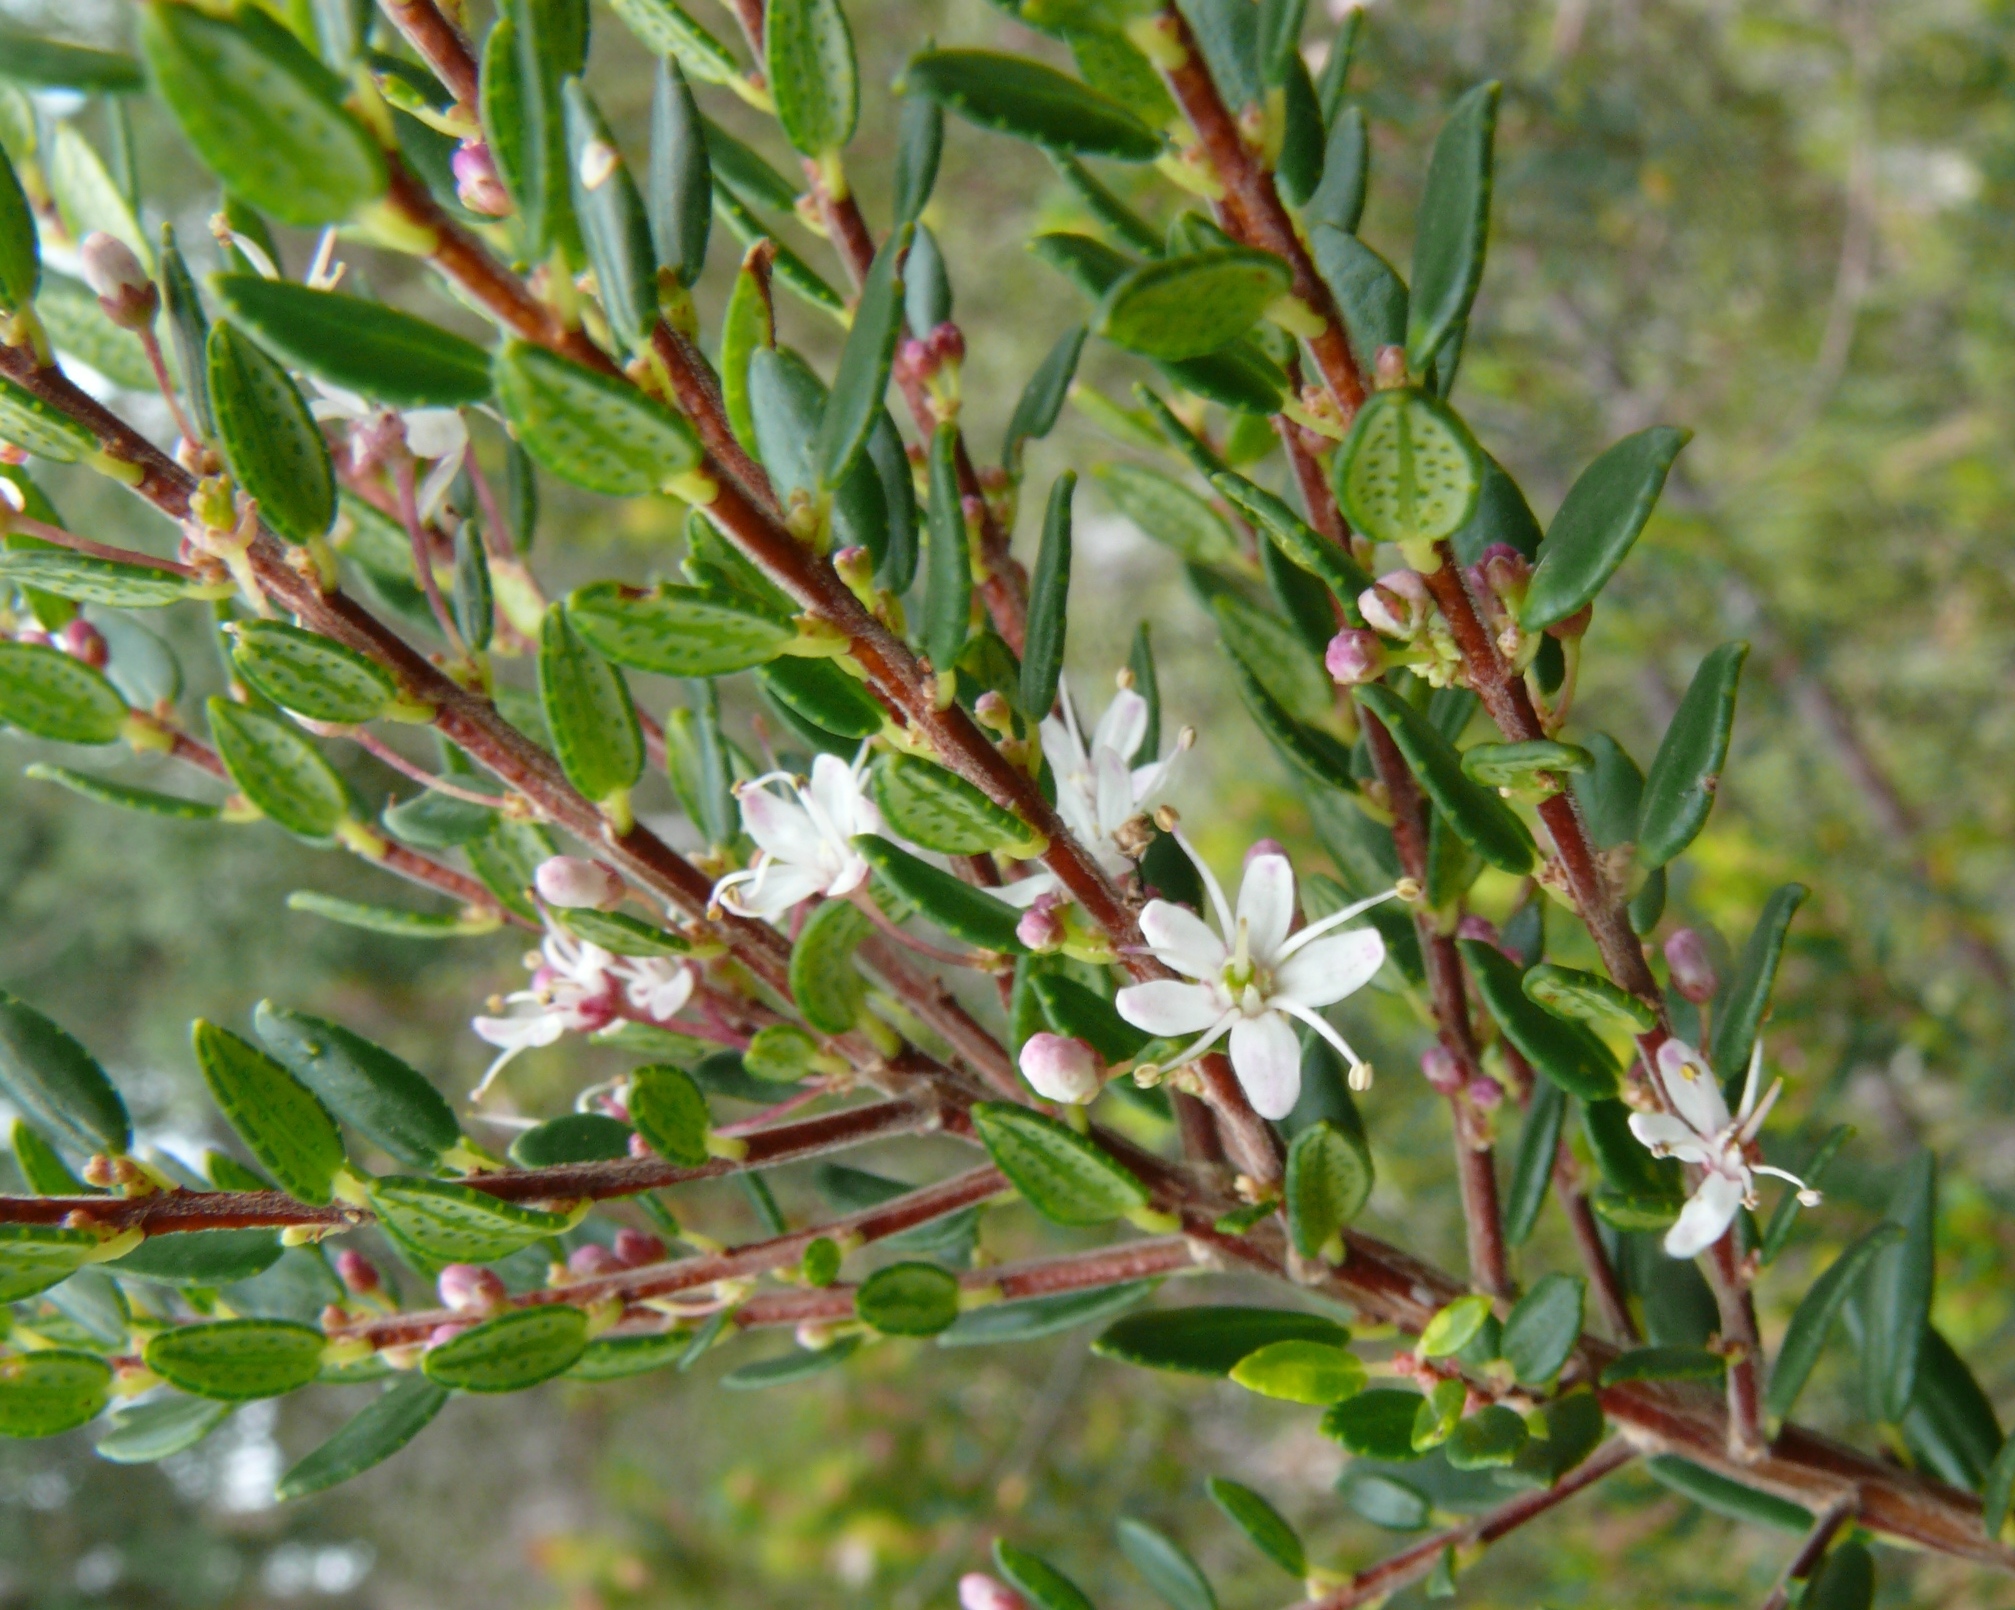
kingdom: Plantae
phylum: Tracheophyta
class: Magnoliopsida
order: Sapindales
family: Rutaceae
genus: Agathosma
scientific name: Agathosma ovata
